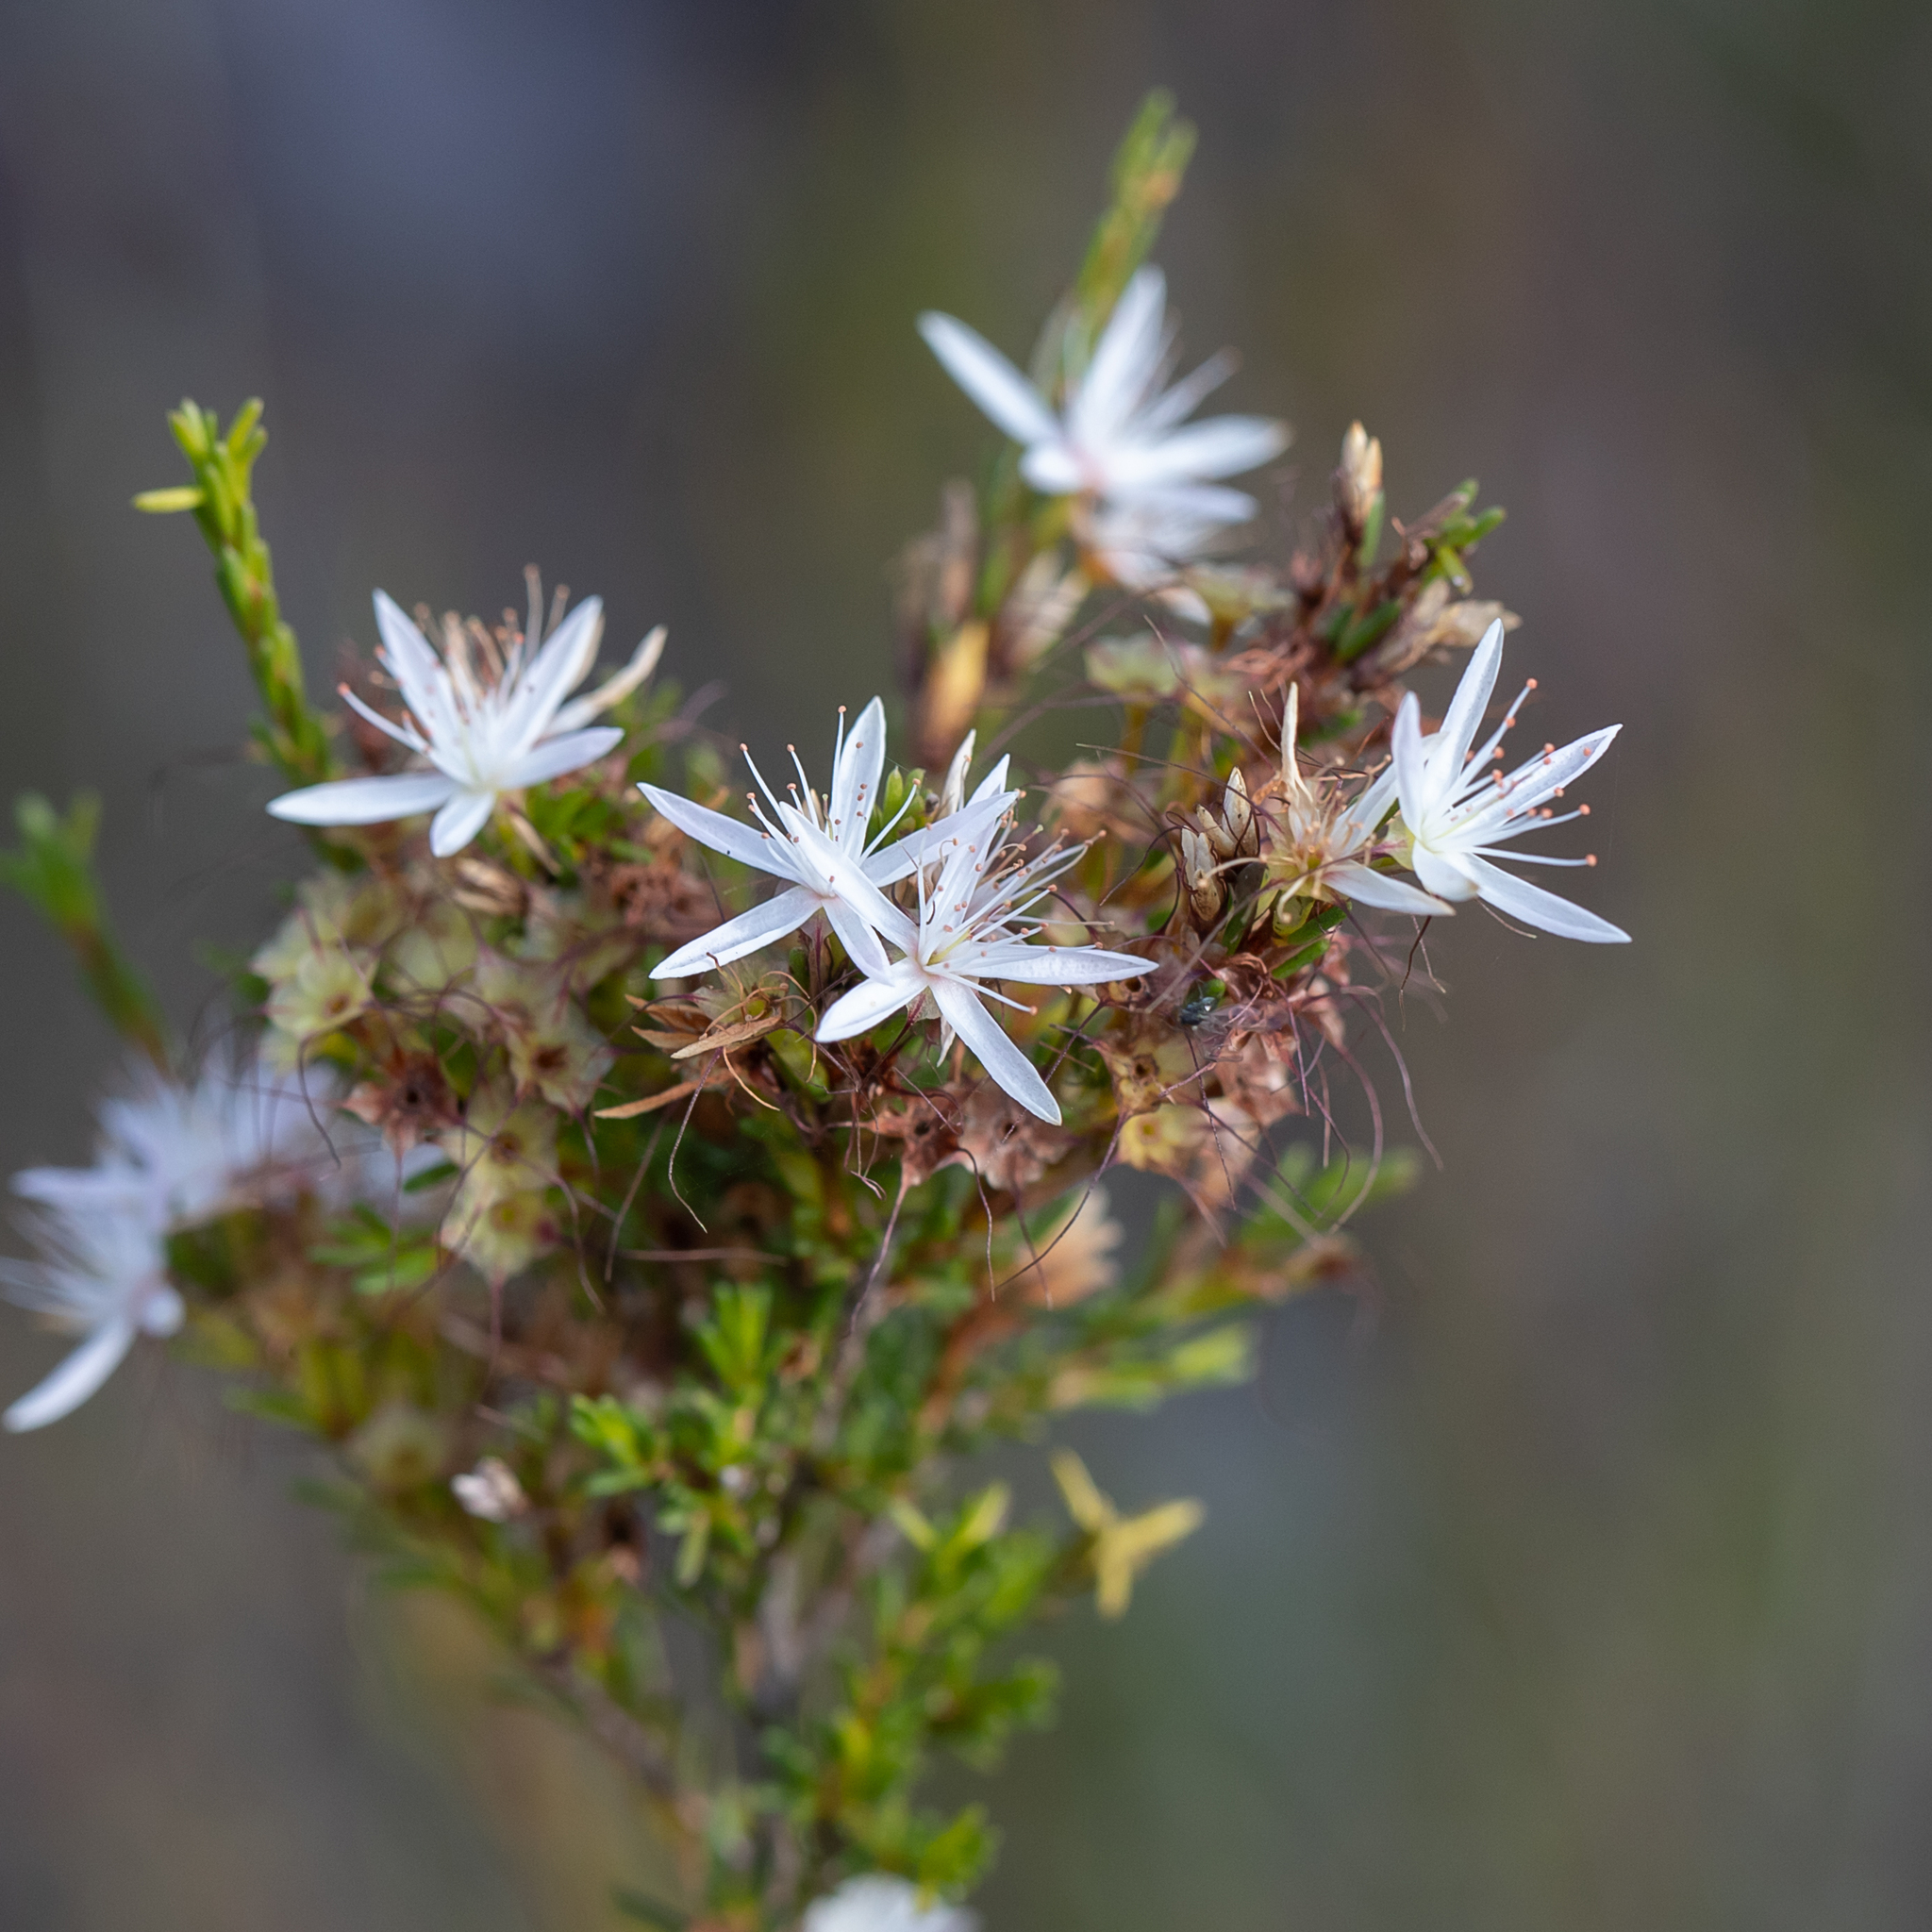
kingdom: Plantae
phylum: Tracheophyta
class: Magnoliopsida
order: Myrtales
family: Myrtaceae
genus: Calytrix
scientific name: Calytrix tetragona
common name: Common fringe myrtle
